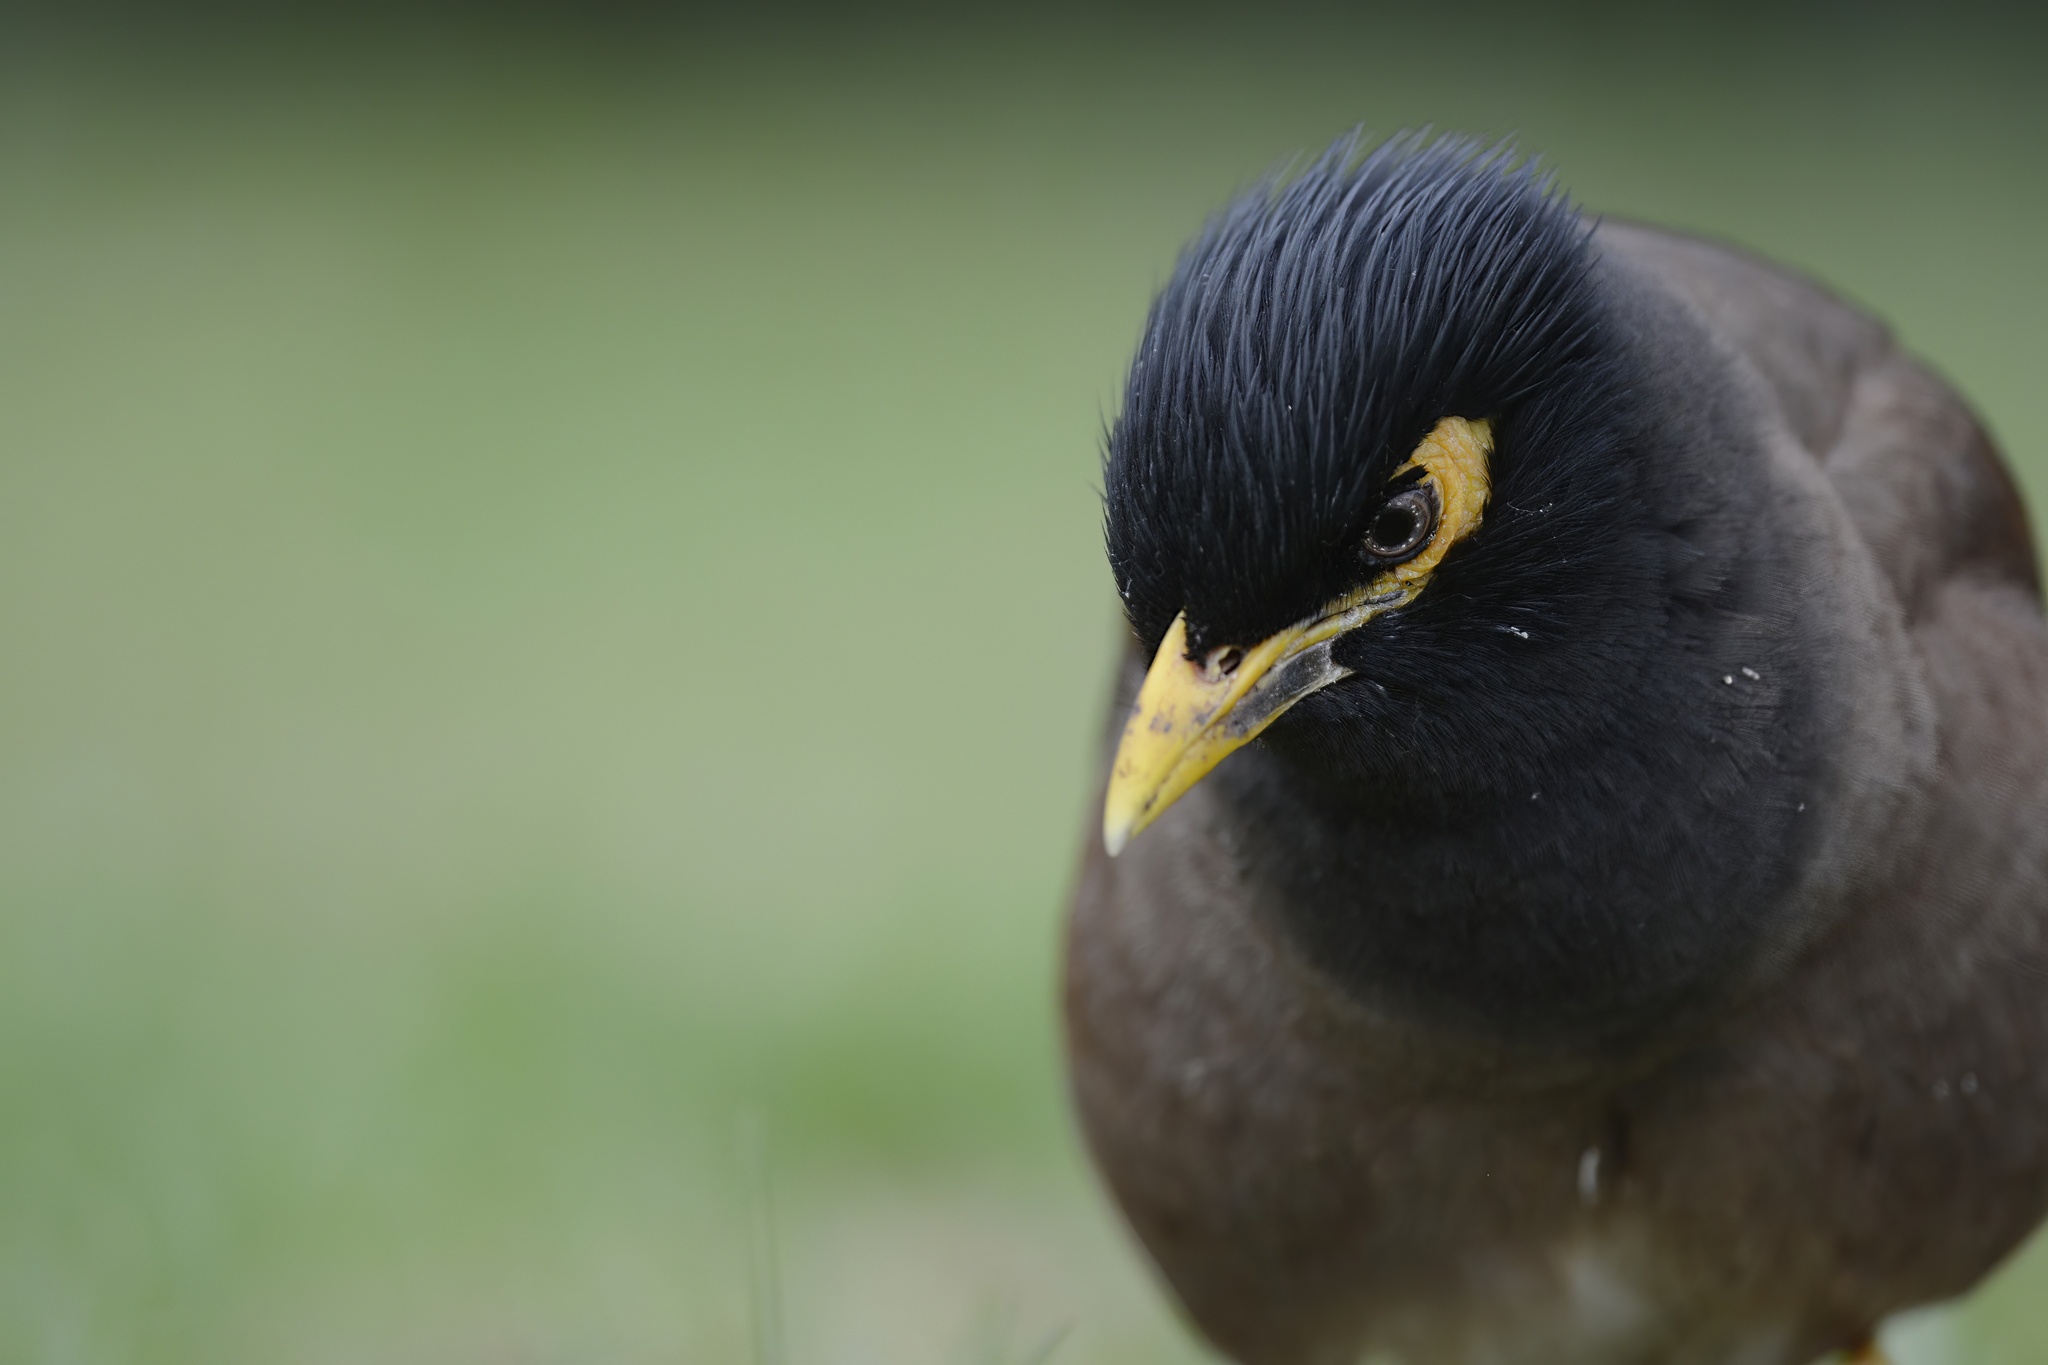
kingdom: Animalia
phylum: Chordata
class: Aves
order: Passeriformes
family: Sturnidae
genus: Acridotheres
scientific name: Acridotheres tristis
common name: Common myna
